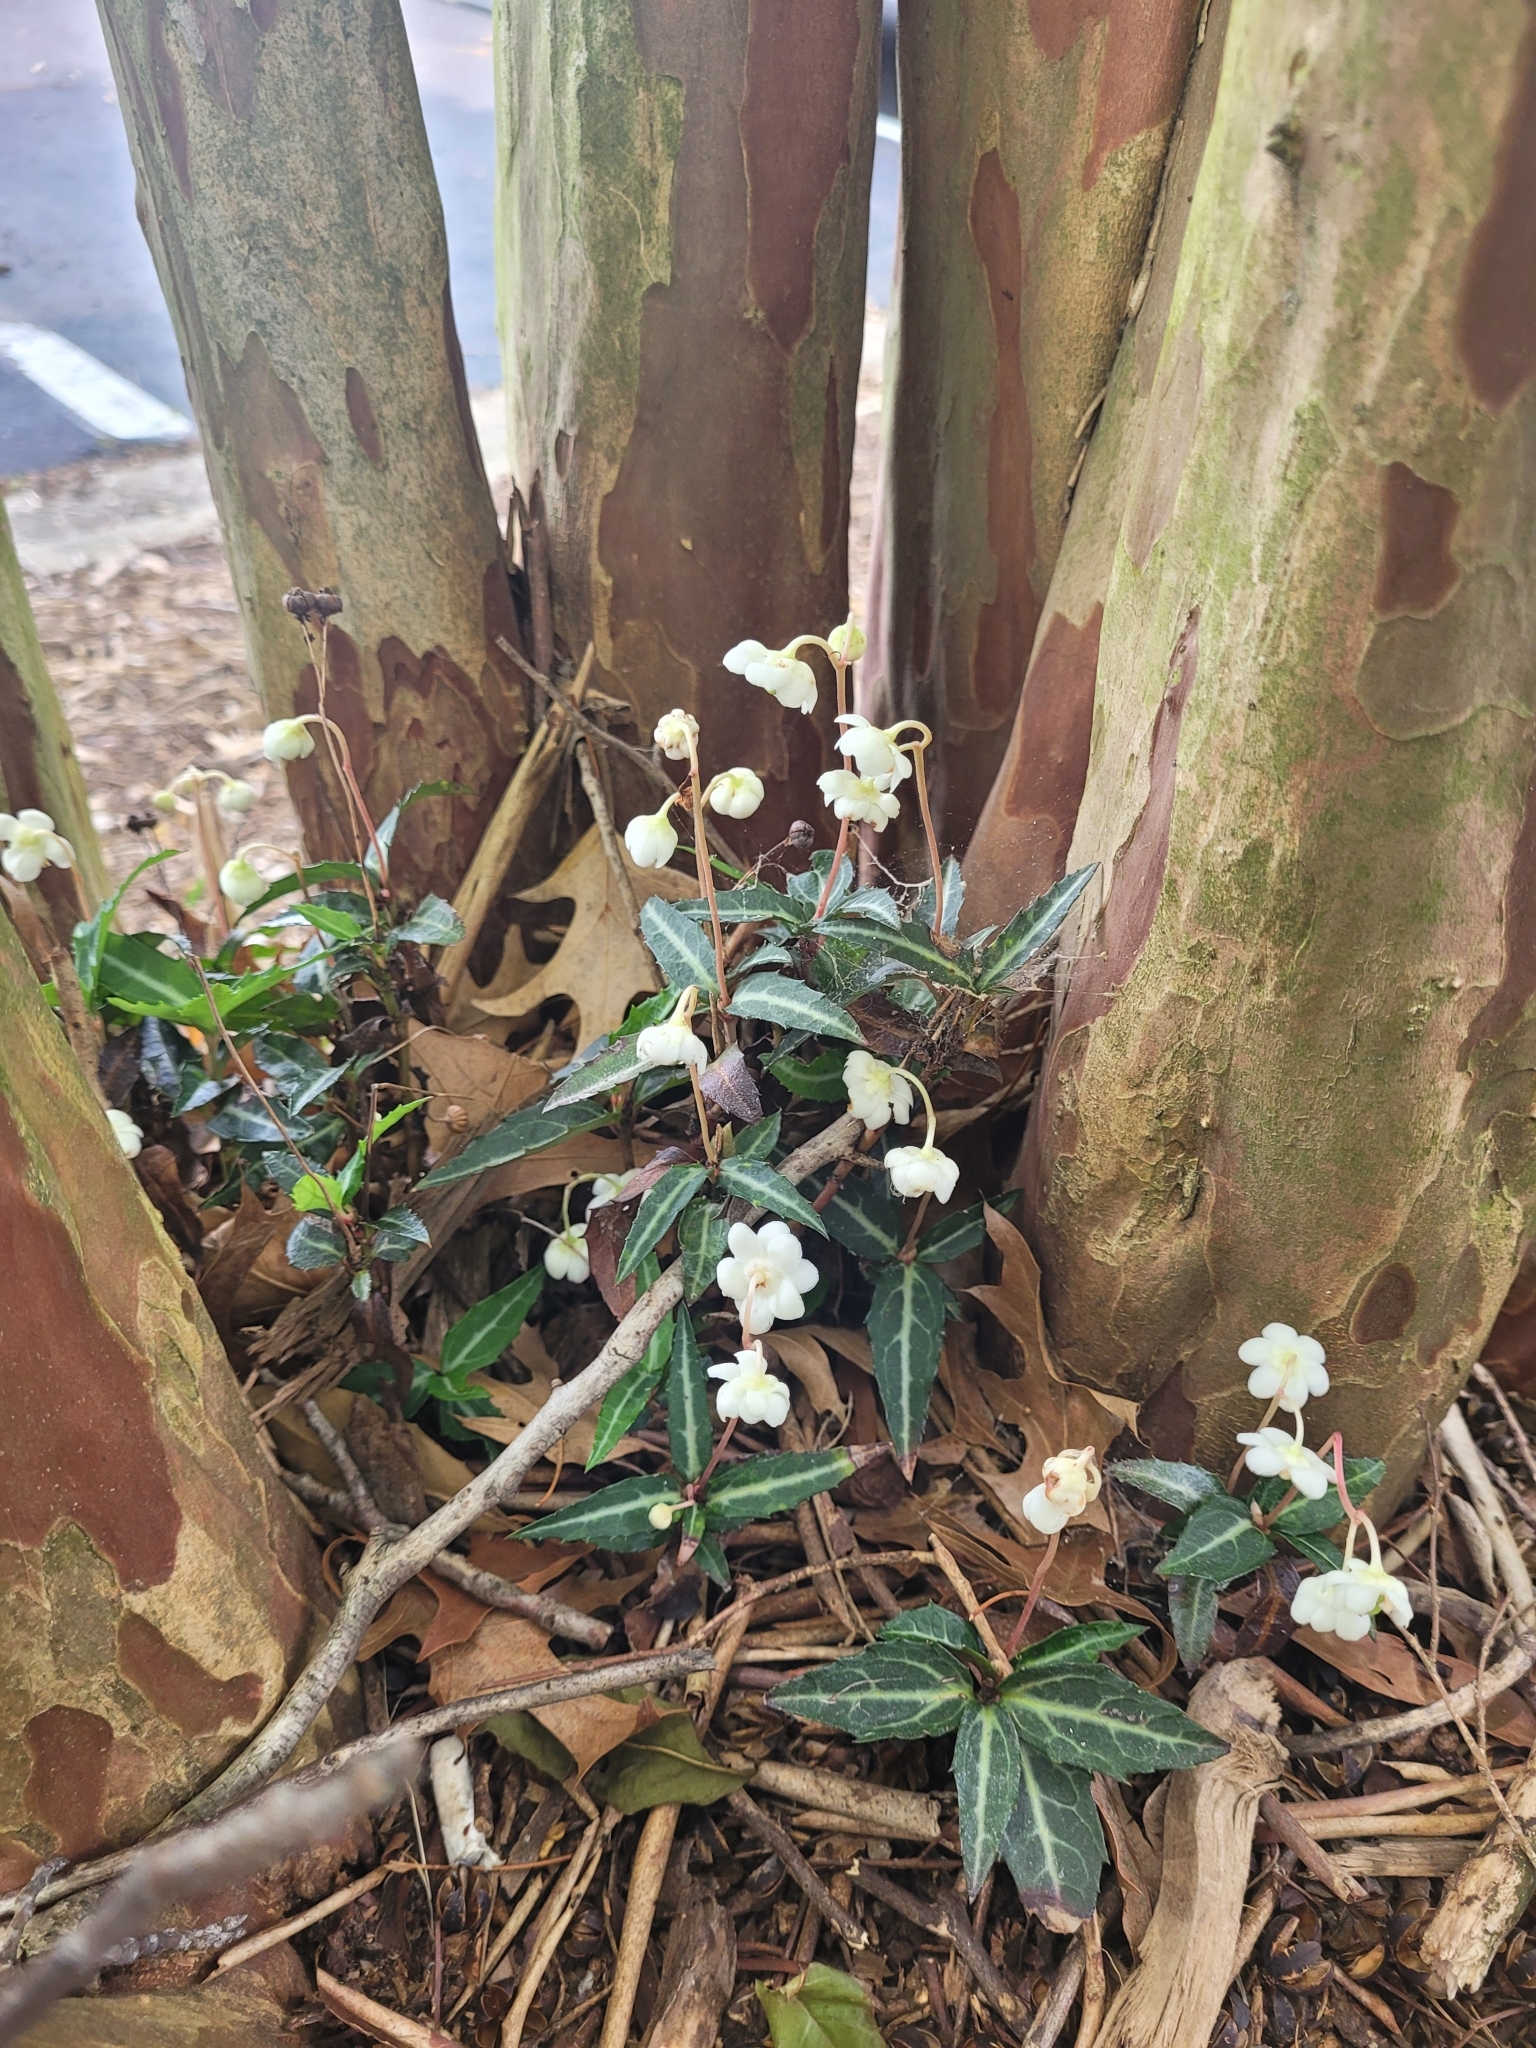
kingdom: Plantae
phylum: Tracheophyta
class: Magnoliopsida
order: Ericales
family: Ericaceae
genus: Chimaphila
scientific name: Chimaphila maculata
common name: Spotted pipsissewa
